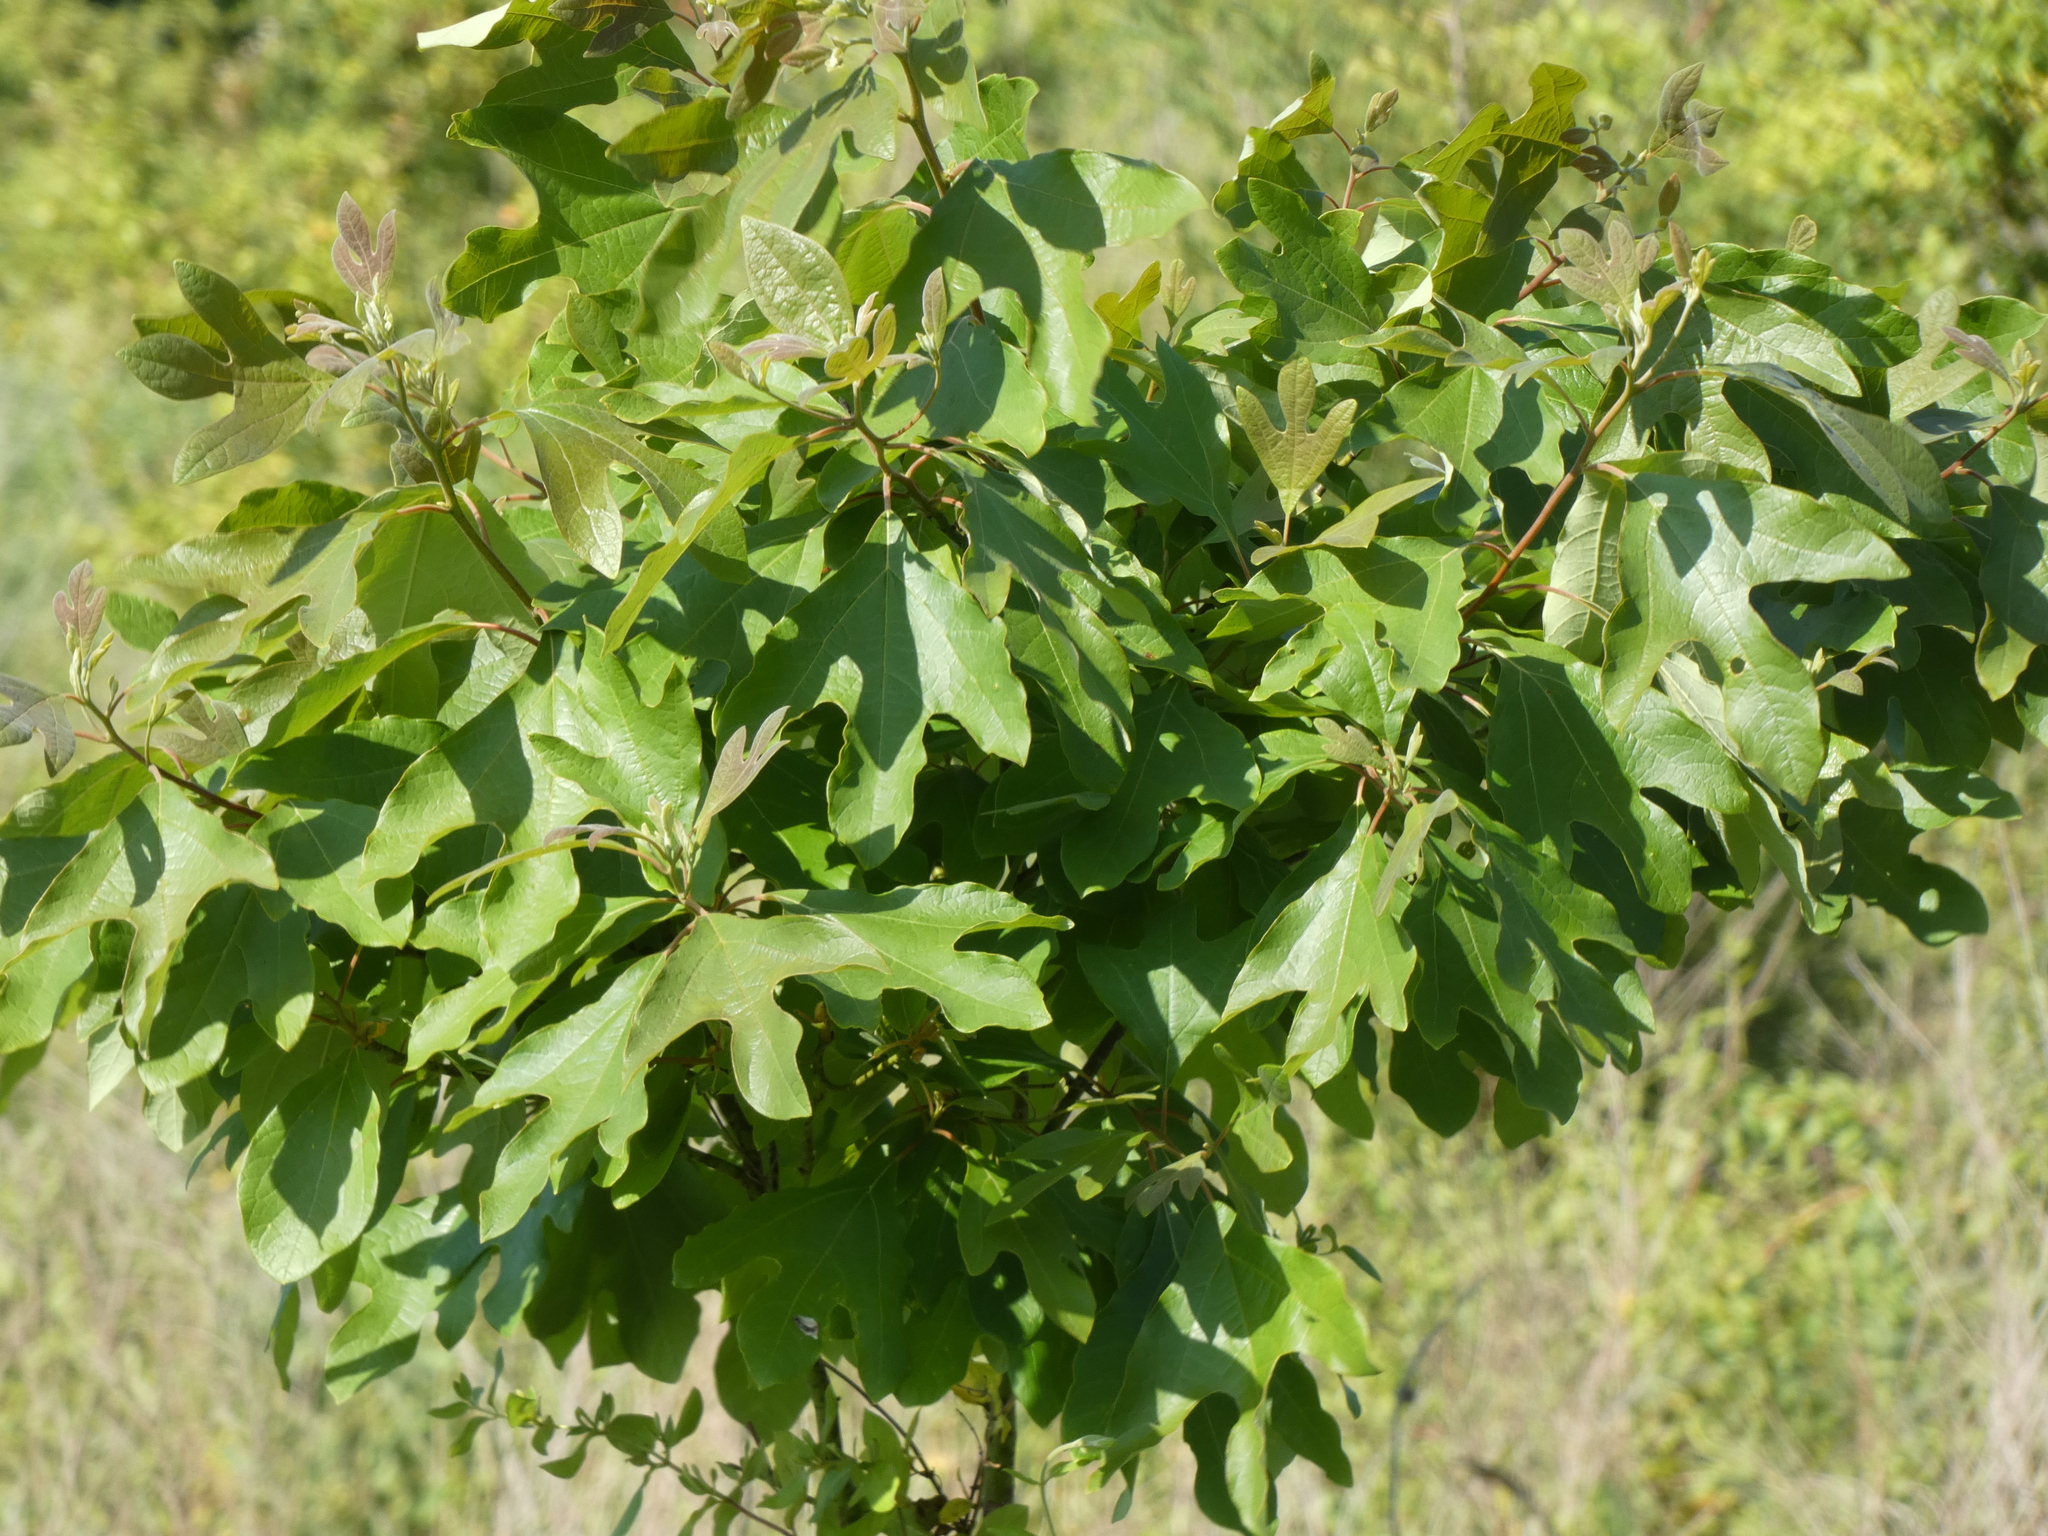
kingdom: Plantae
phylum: Tracheophyta
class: Magnoliopsida
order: Laurales
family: Lauraceae
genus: Sassafras
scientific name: Sassafras albidum
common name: Sassafras
